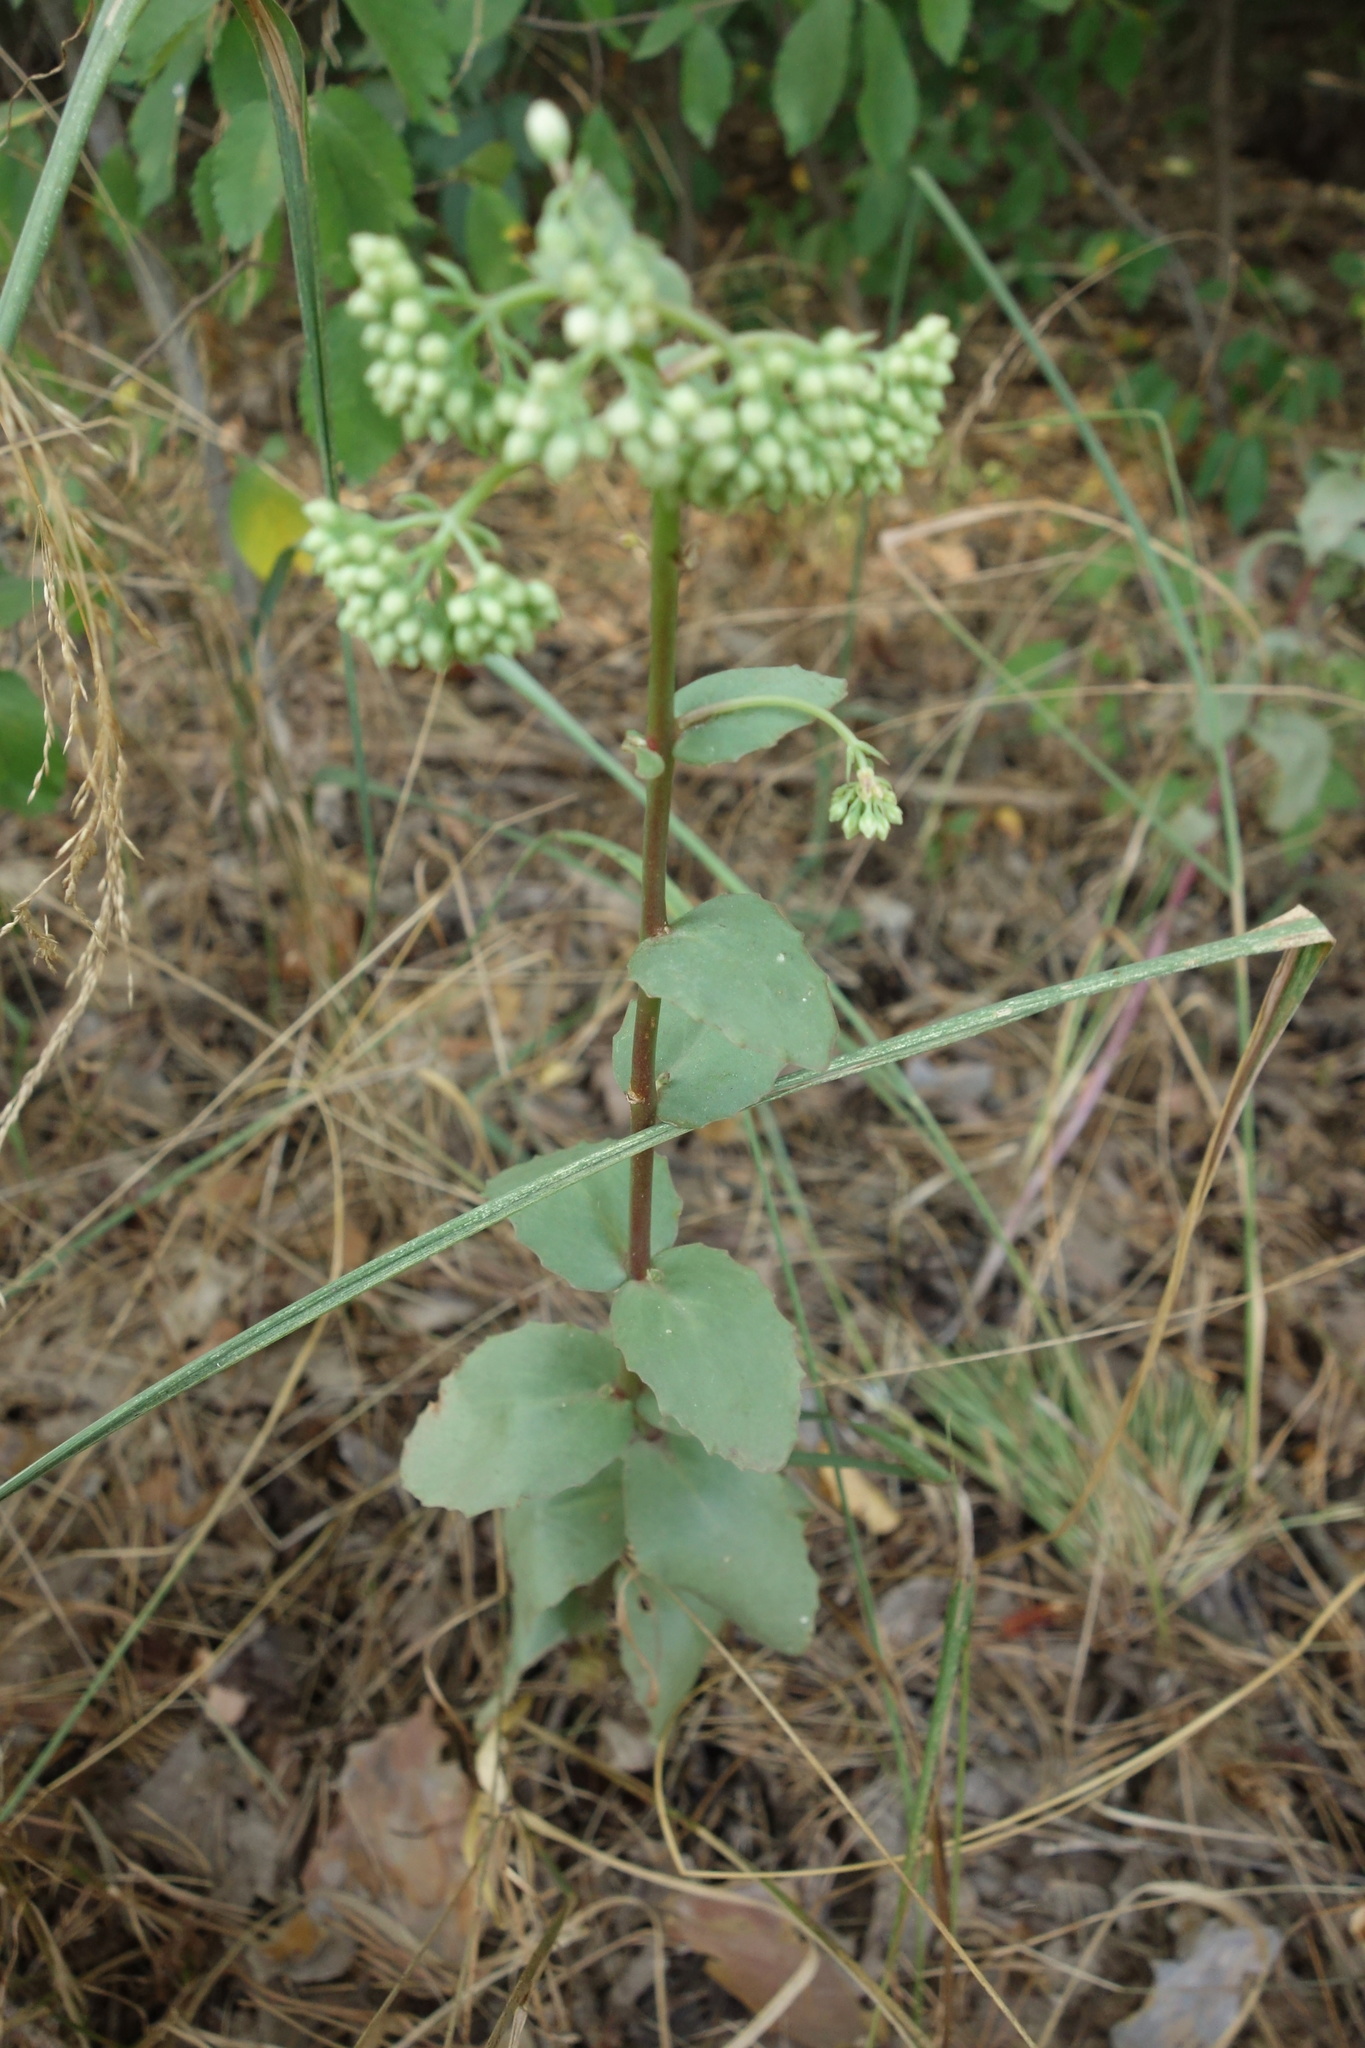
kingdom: Plantae
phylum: Tracheophyta
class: Magnoliopsida
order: Saxifragales
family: Crassulaceae
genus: Hylotelephium
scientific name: Hylotelephium maximum
